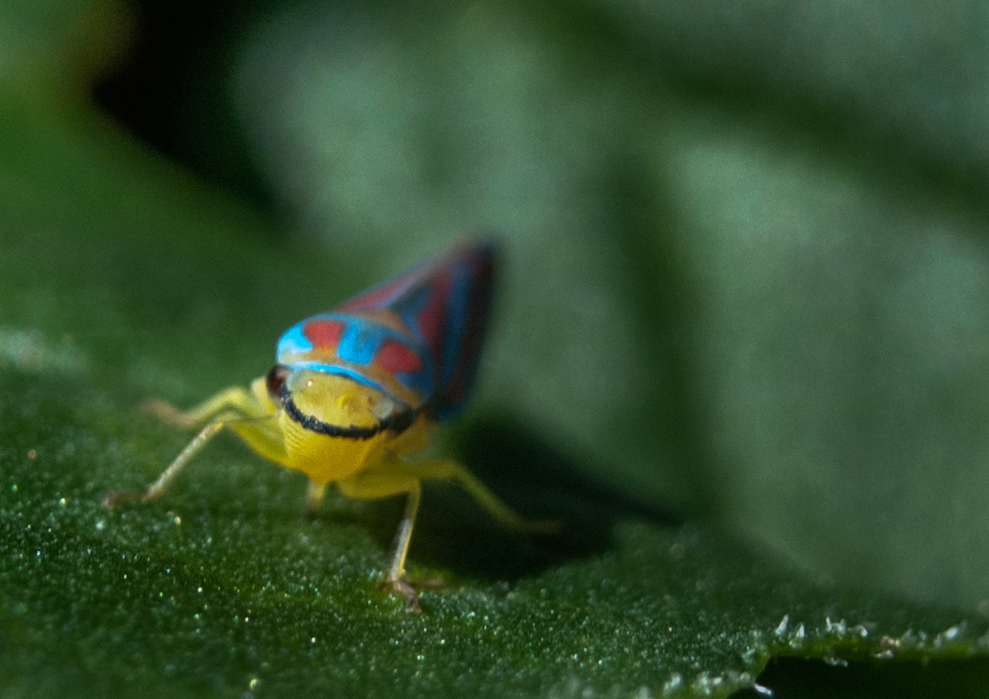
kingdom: Animalia
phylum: Arthropoda
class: Insecta
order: Hemiptera
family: Cicadellidae
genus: Graphocephala
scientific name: Graphocephala coccinea
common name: Candy-striped leafhopper
